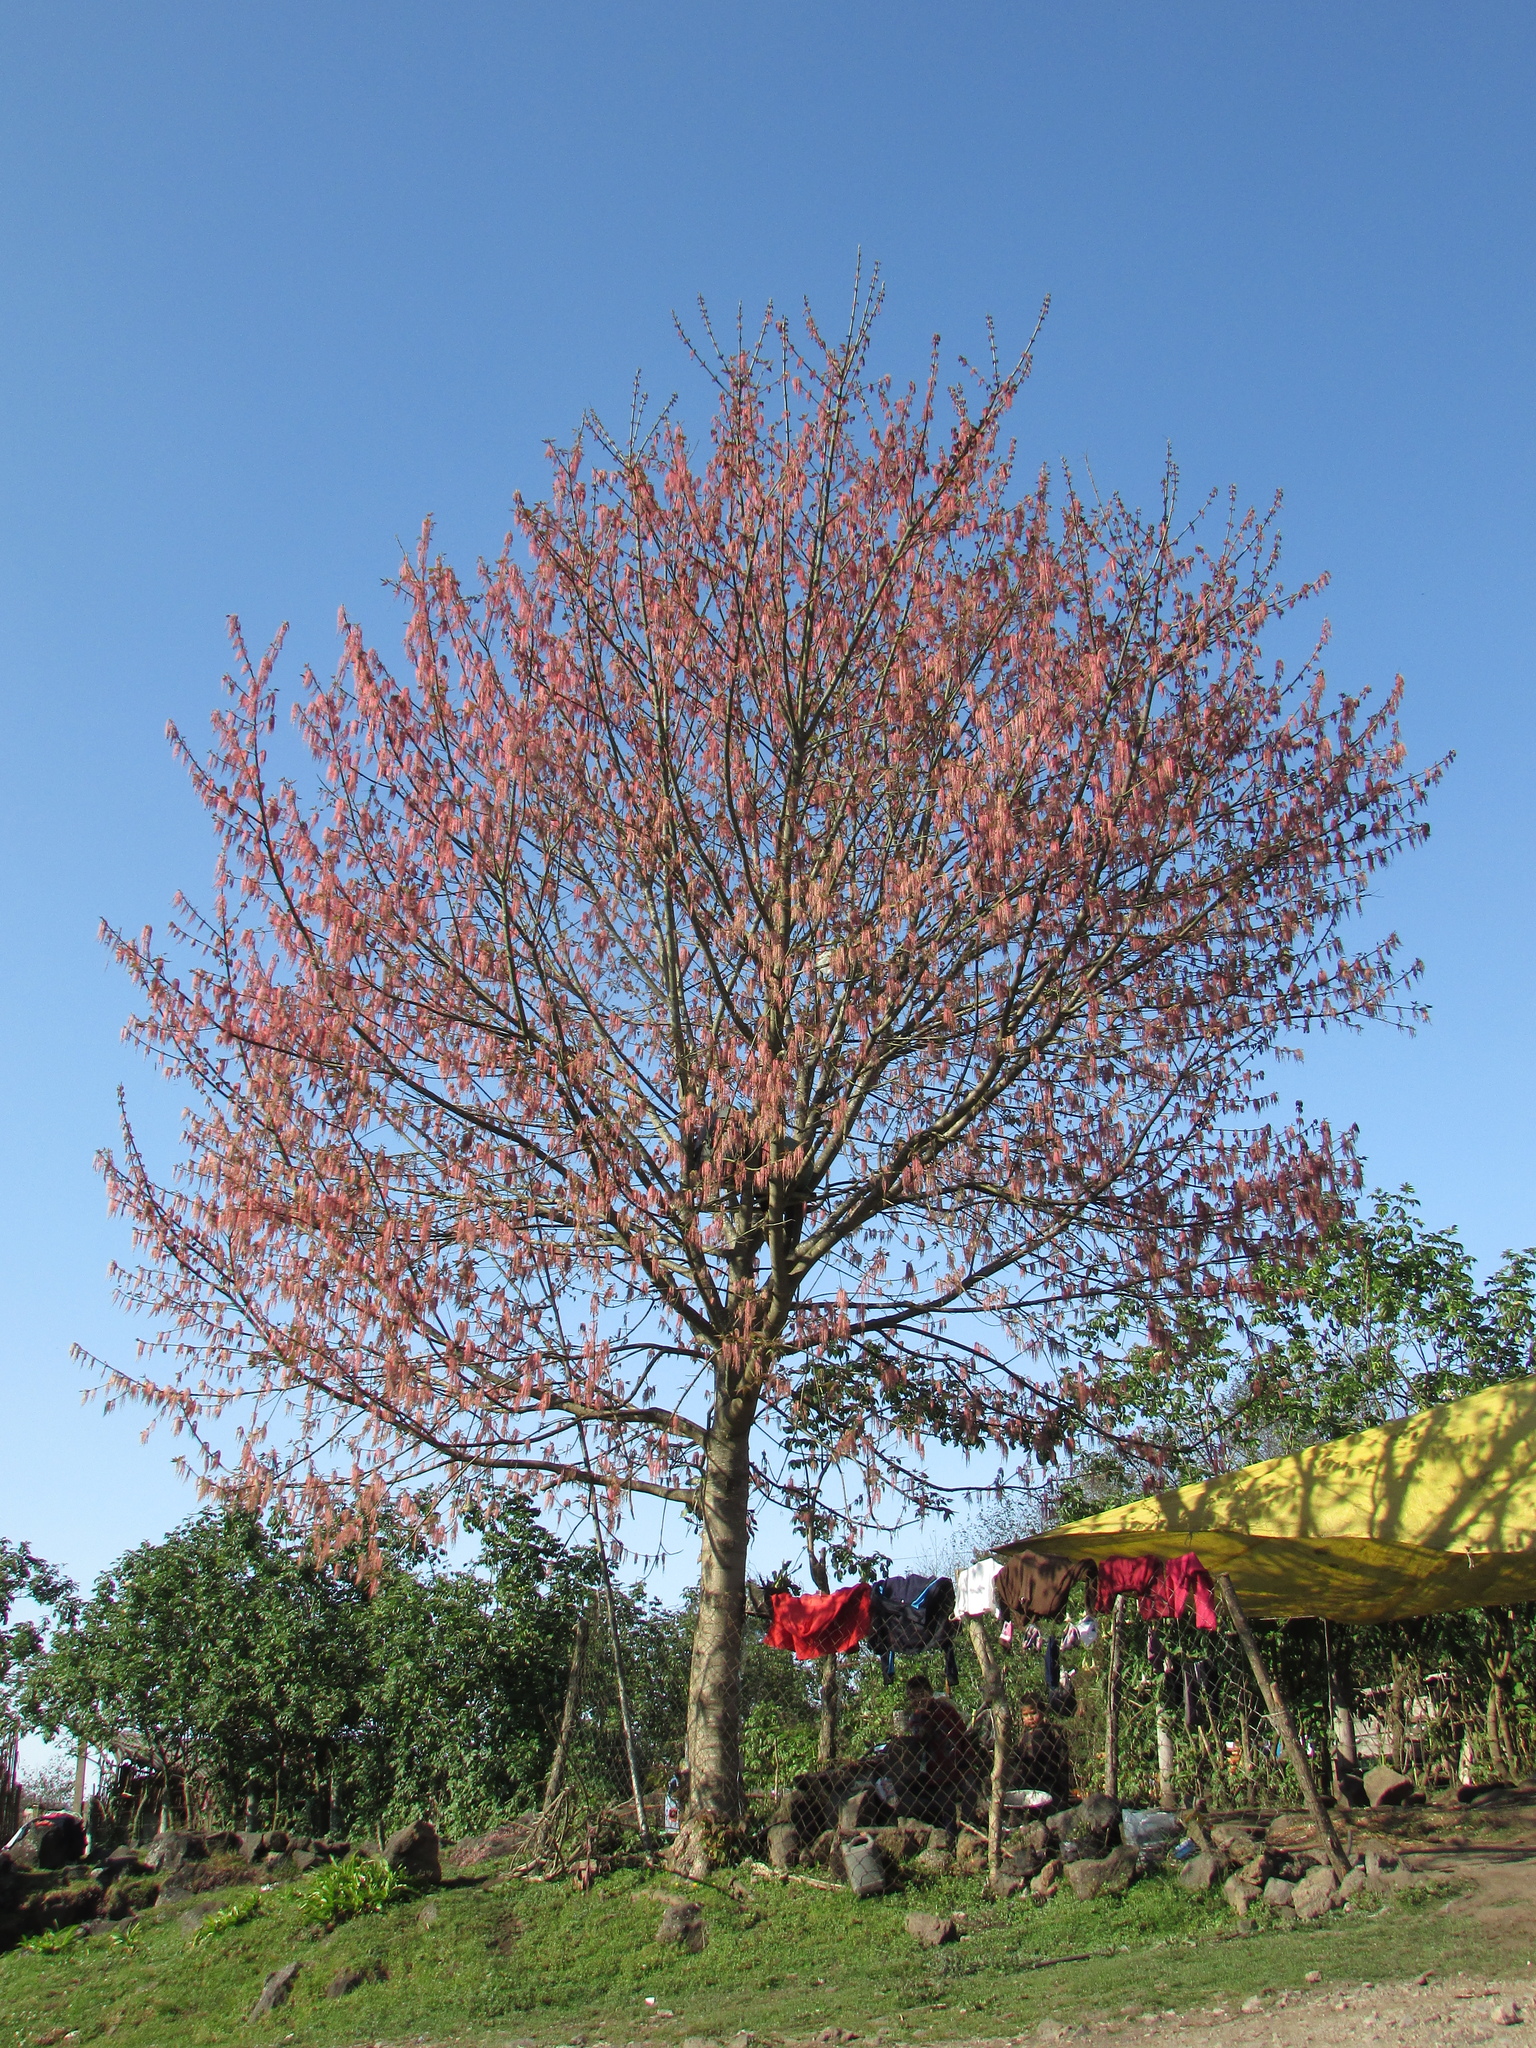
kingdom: Plantae
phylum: Tracheophyta
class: Magnoliopsida
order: Sapindales
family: Sapindaceae
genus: Acer
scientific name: Acer negundo
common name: Ashleaf maple
